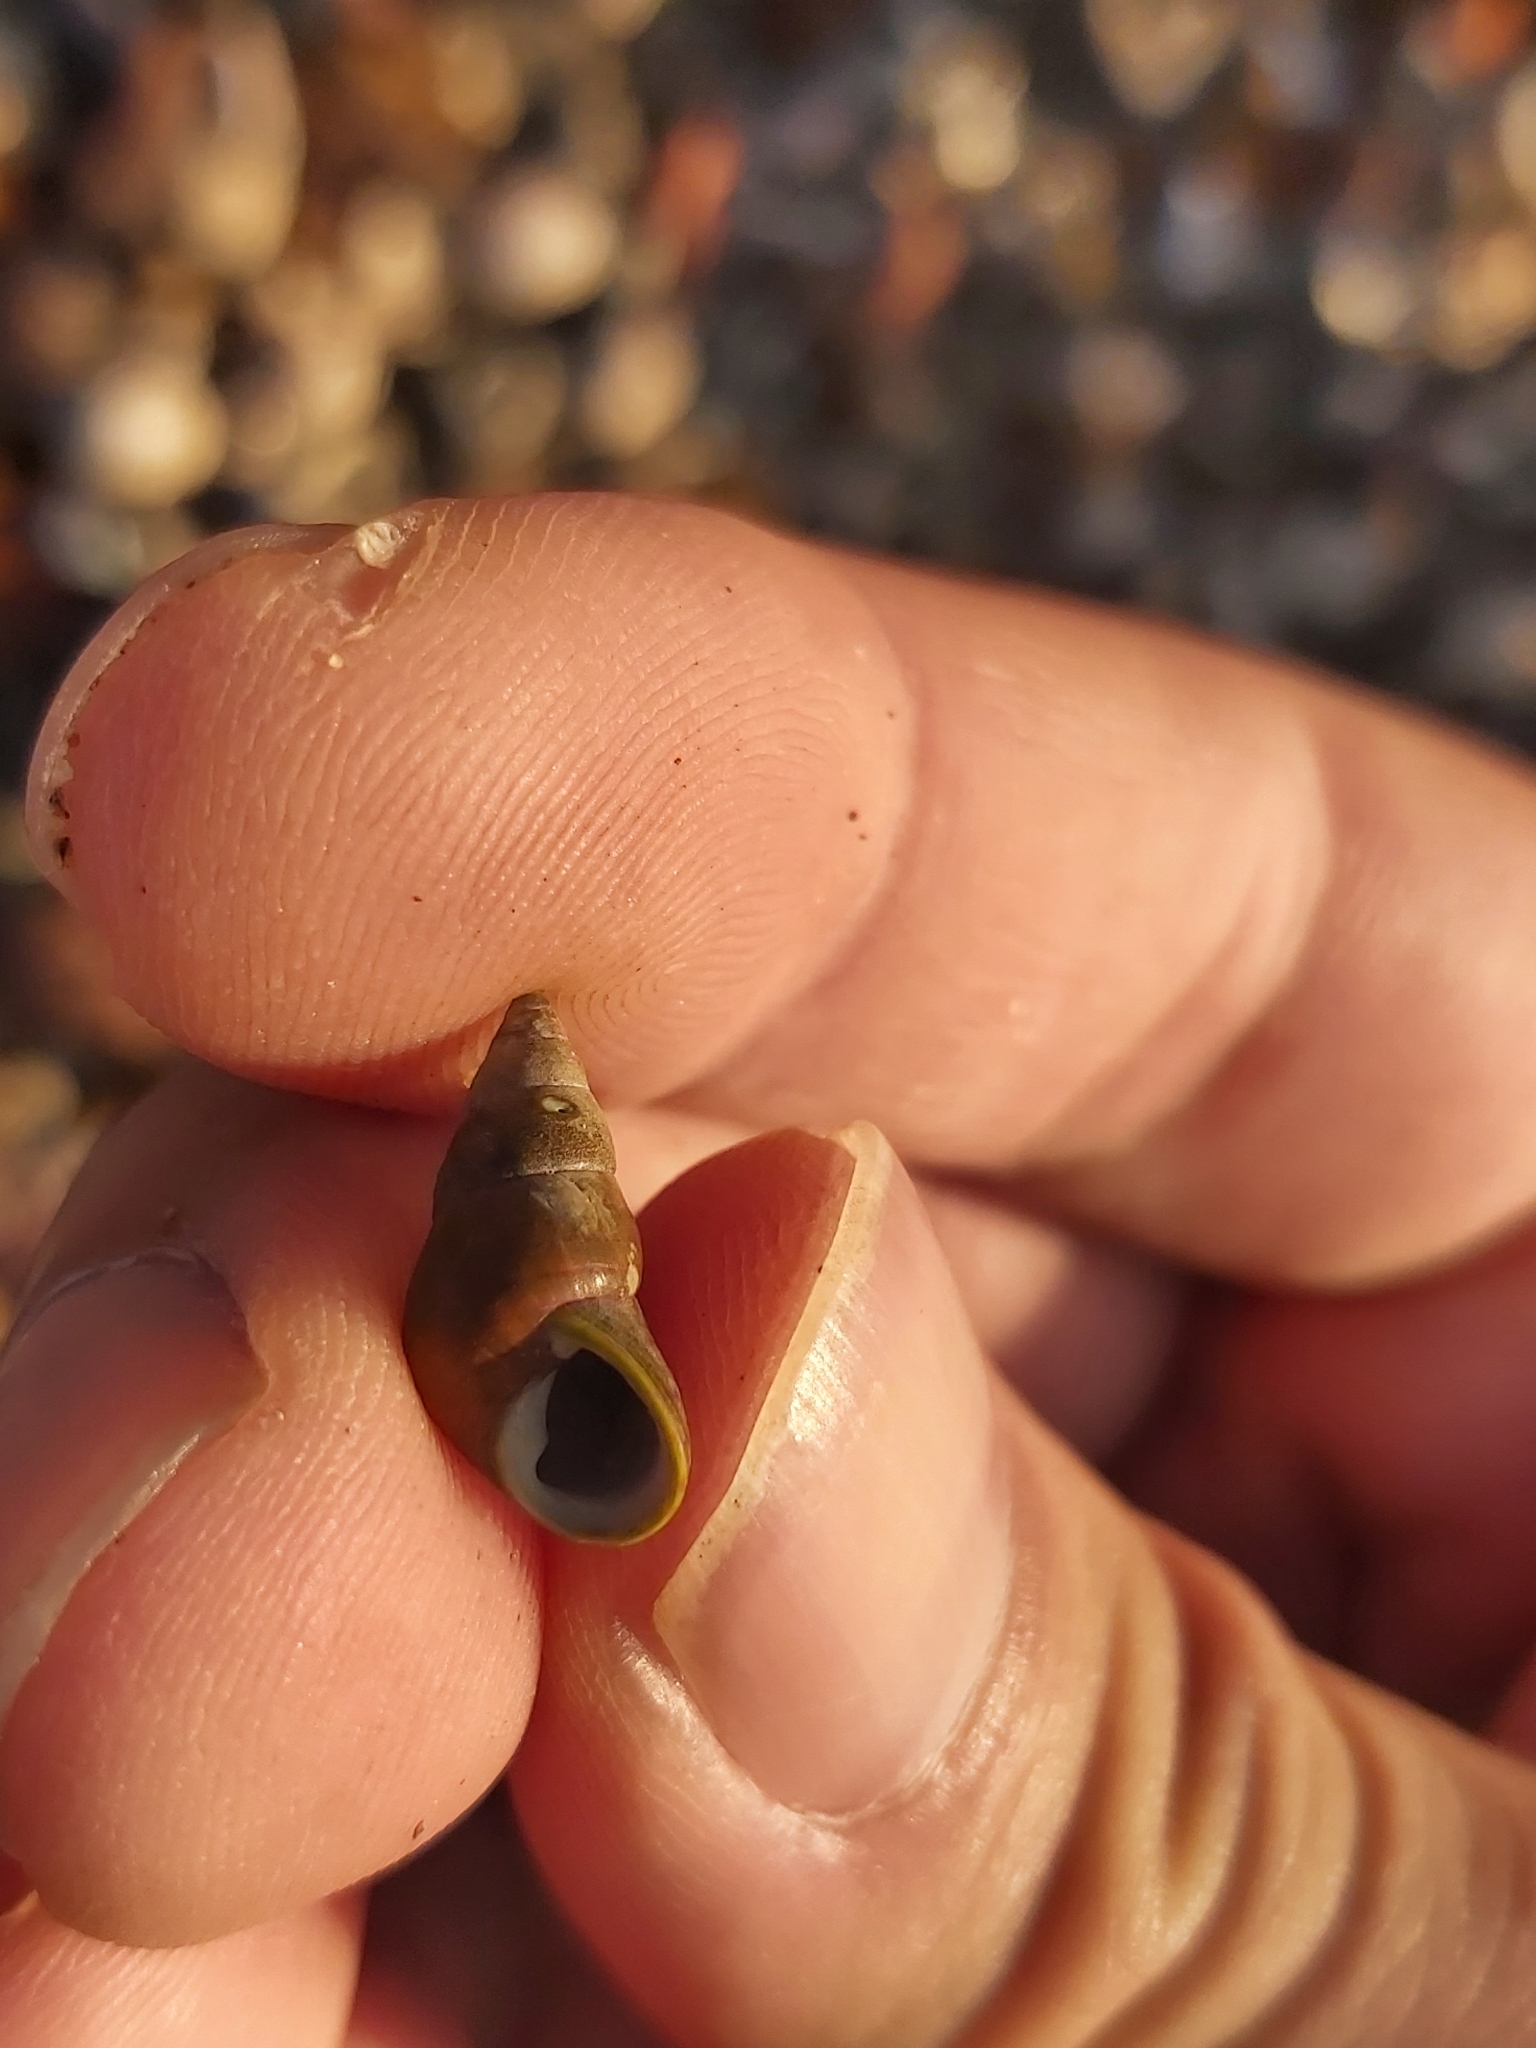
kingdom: Animalia
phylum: Mollusca
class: Gastropoda
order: Trochida
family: Trochidae
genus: Phasianotrochus
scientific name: Phasianotrochus eximius
